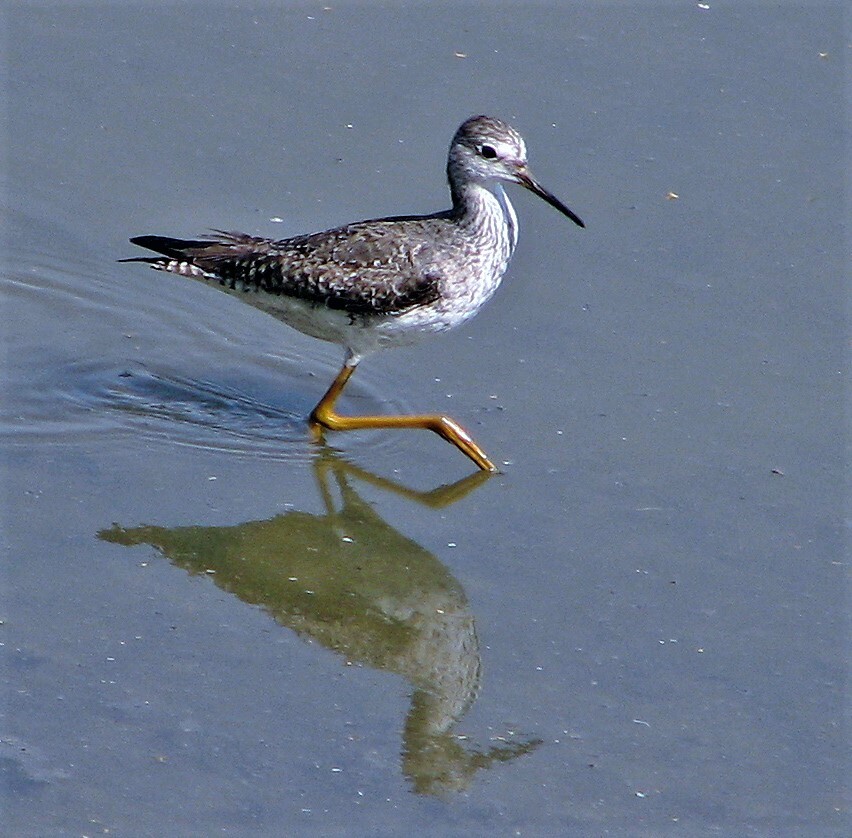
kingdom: Animalia
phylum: Chordata
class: Aves
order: Charadriiformes
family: Scolopacidae
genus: Tringa
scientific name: Tringa flavipes
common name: Lesser yellowlegs
